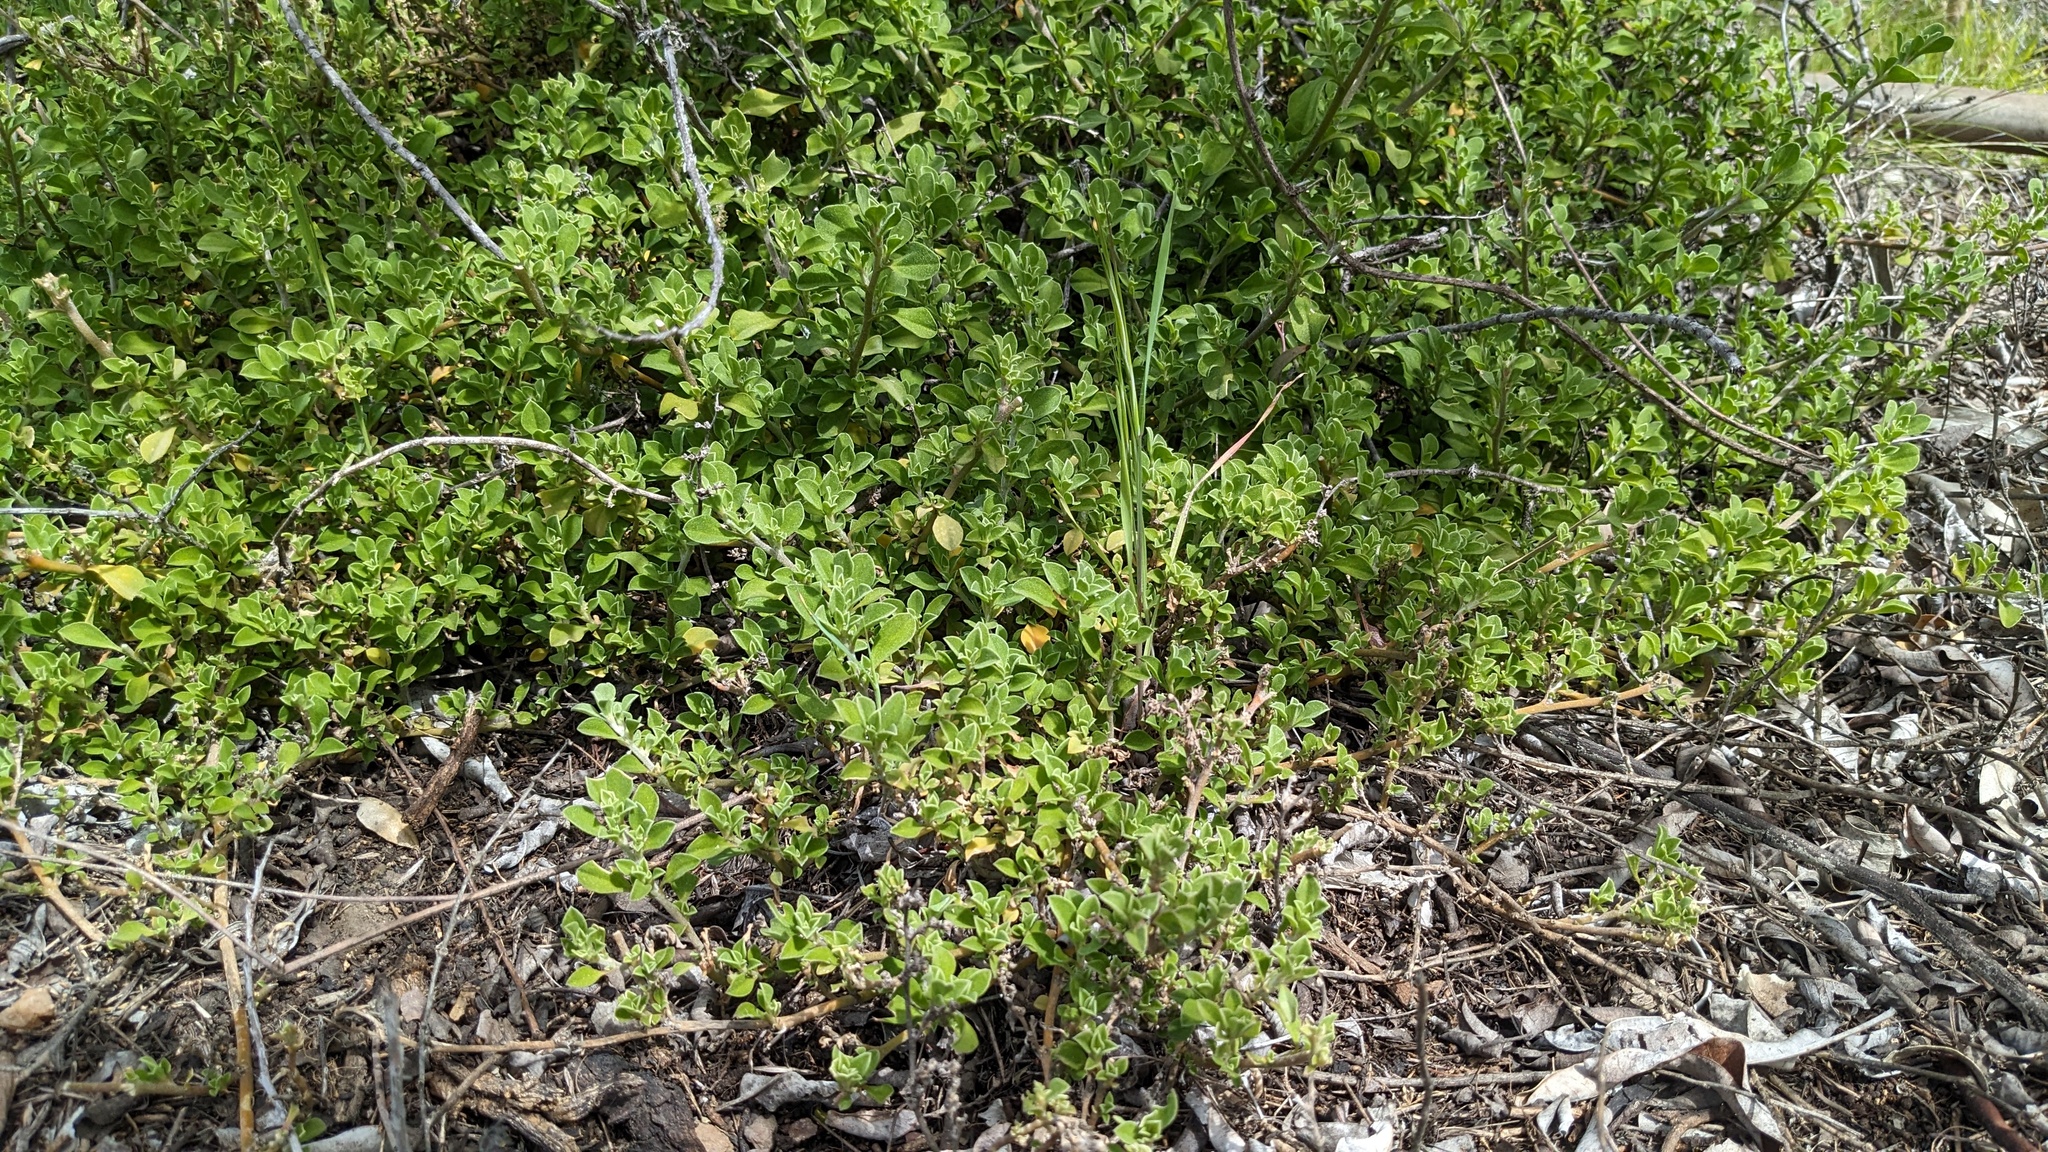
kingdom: Plantae
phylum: Tracheophyta
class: Magnoliopsida
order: Caryophyllales
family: Aizoaceae
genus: Aizoon
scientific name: Aizoon pubescens
